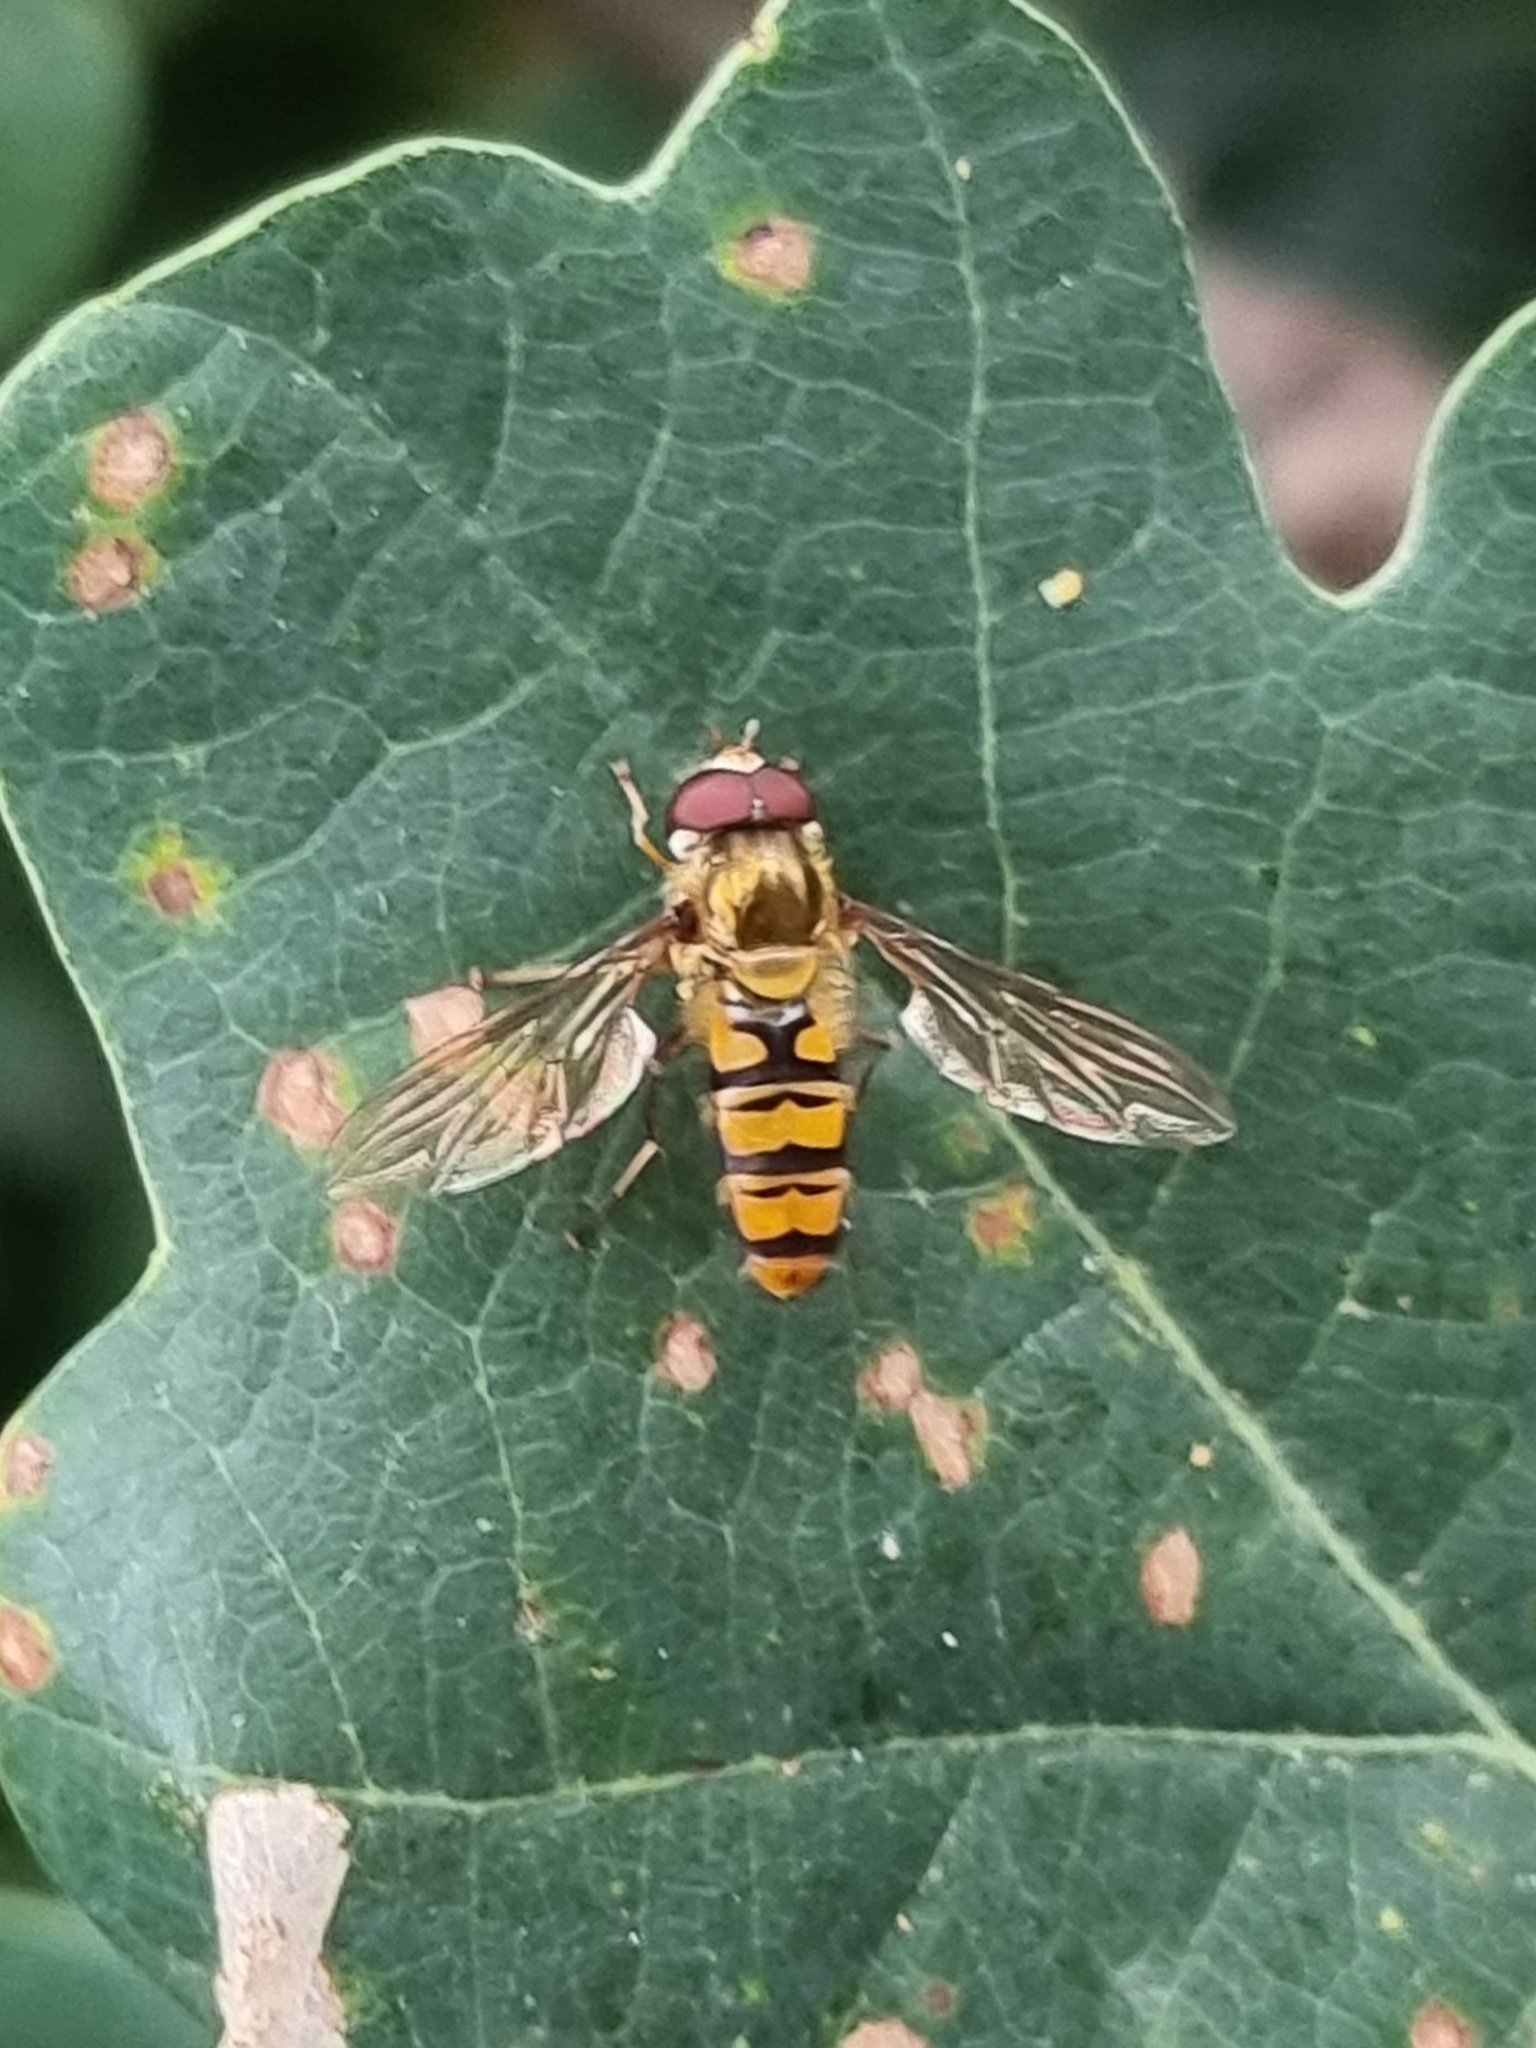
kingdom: Animalia
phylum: Arthropoda
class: Insecta
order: Diptera
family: Syrphidae
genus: Episyrphus
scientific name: Episyrphus balteatus
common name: Marmalade hoverfly
